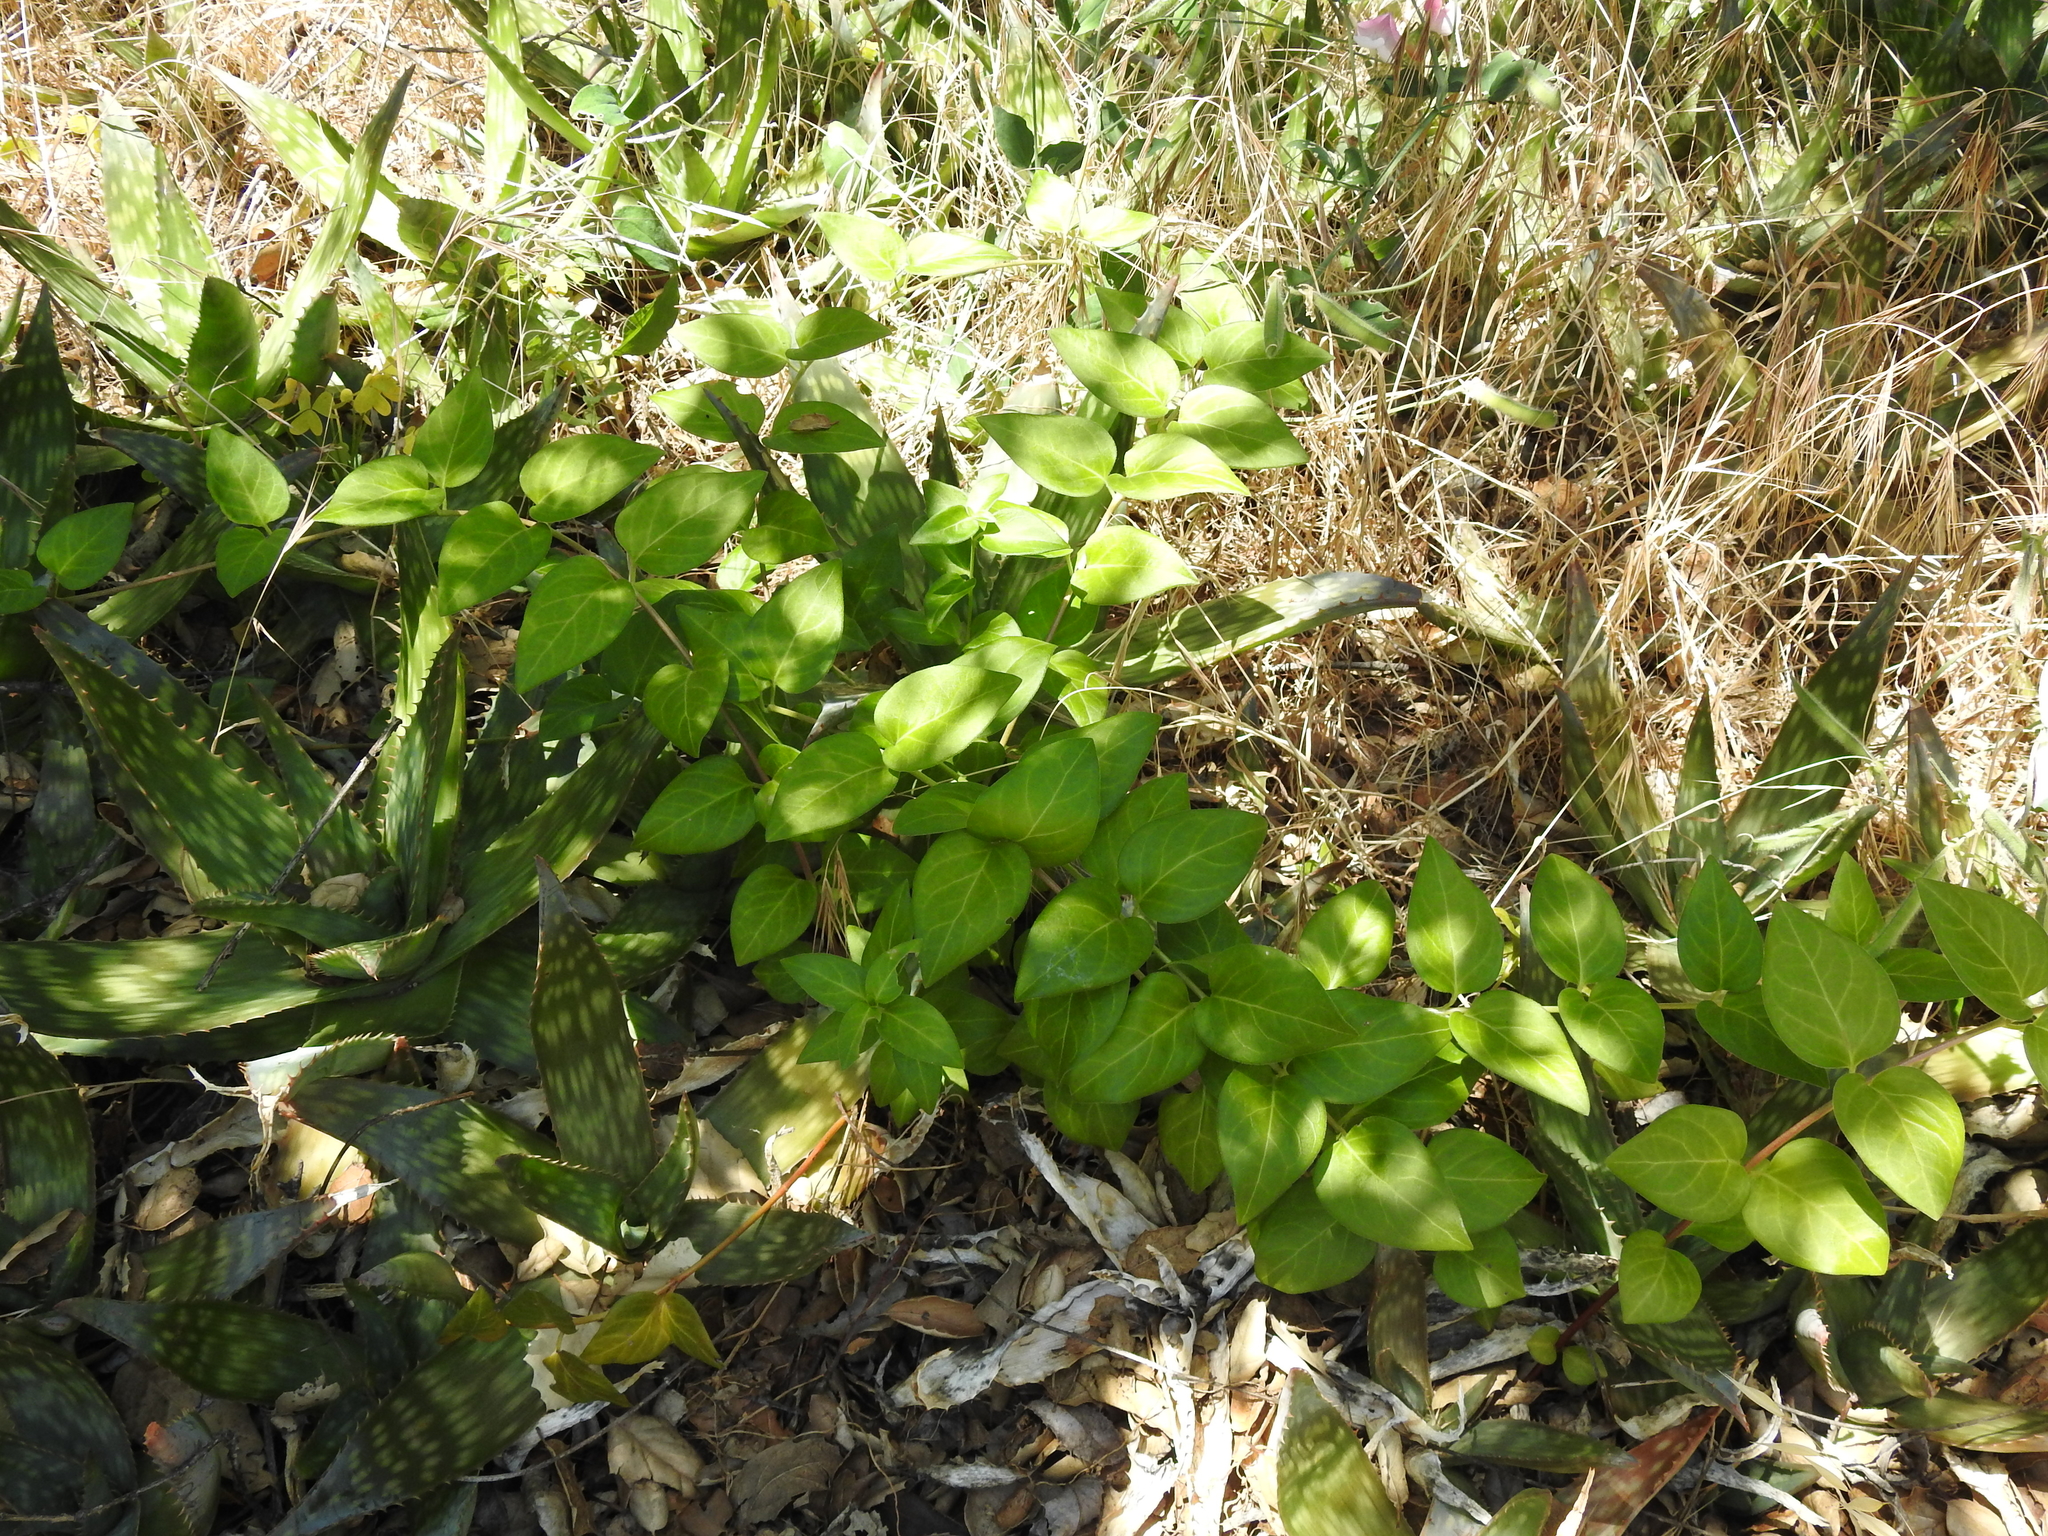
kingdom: Plantae
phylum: Tracheophyta
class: Magnoliopsida
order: Gentianales
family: Apocynaceae
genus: Vinca
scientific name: Vinca major
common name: Greater periwinkle
